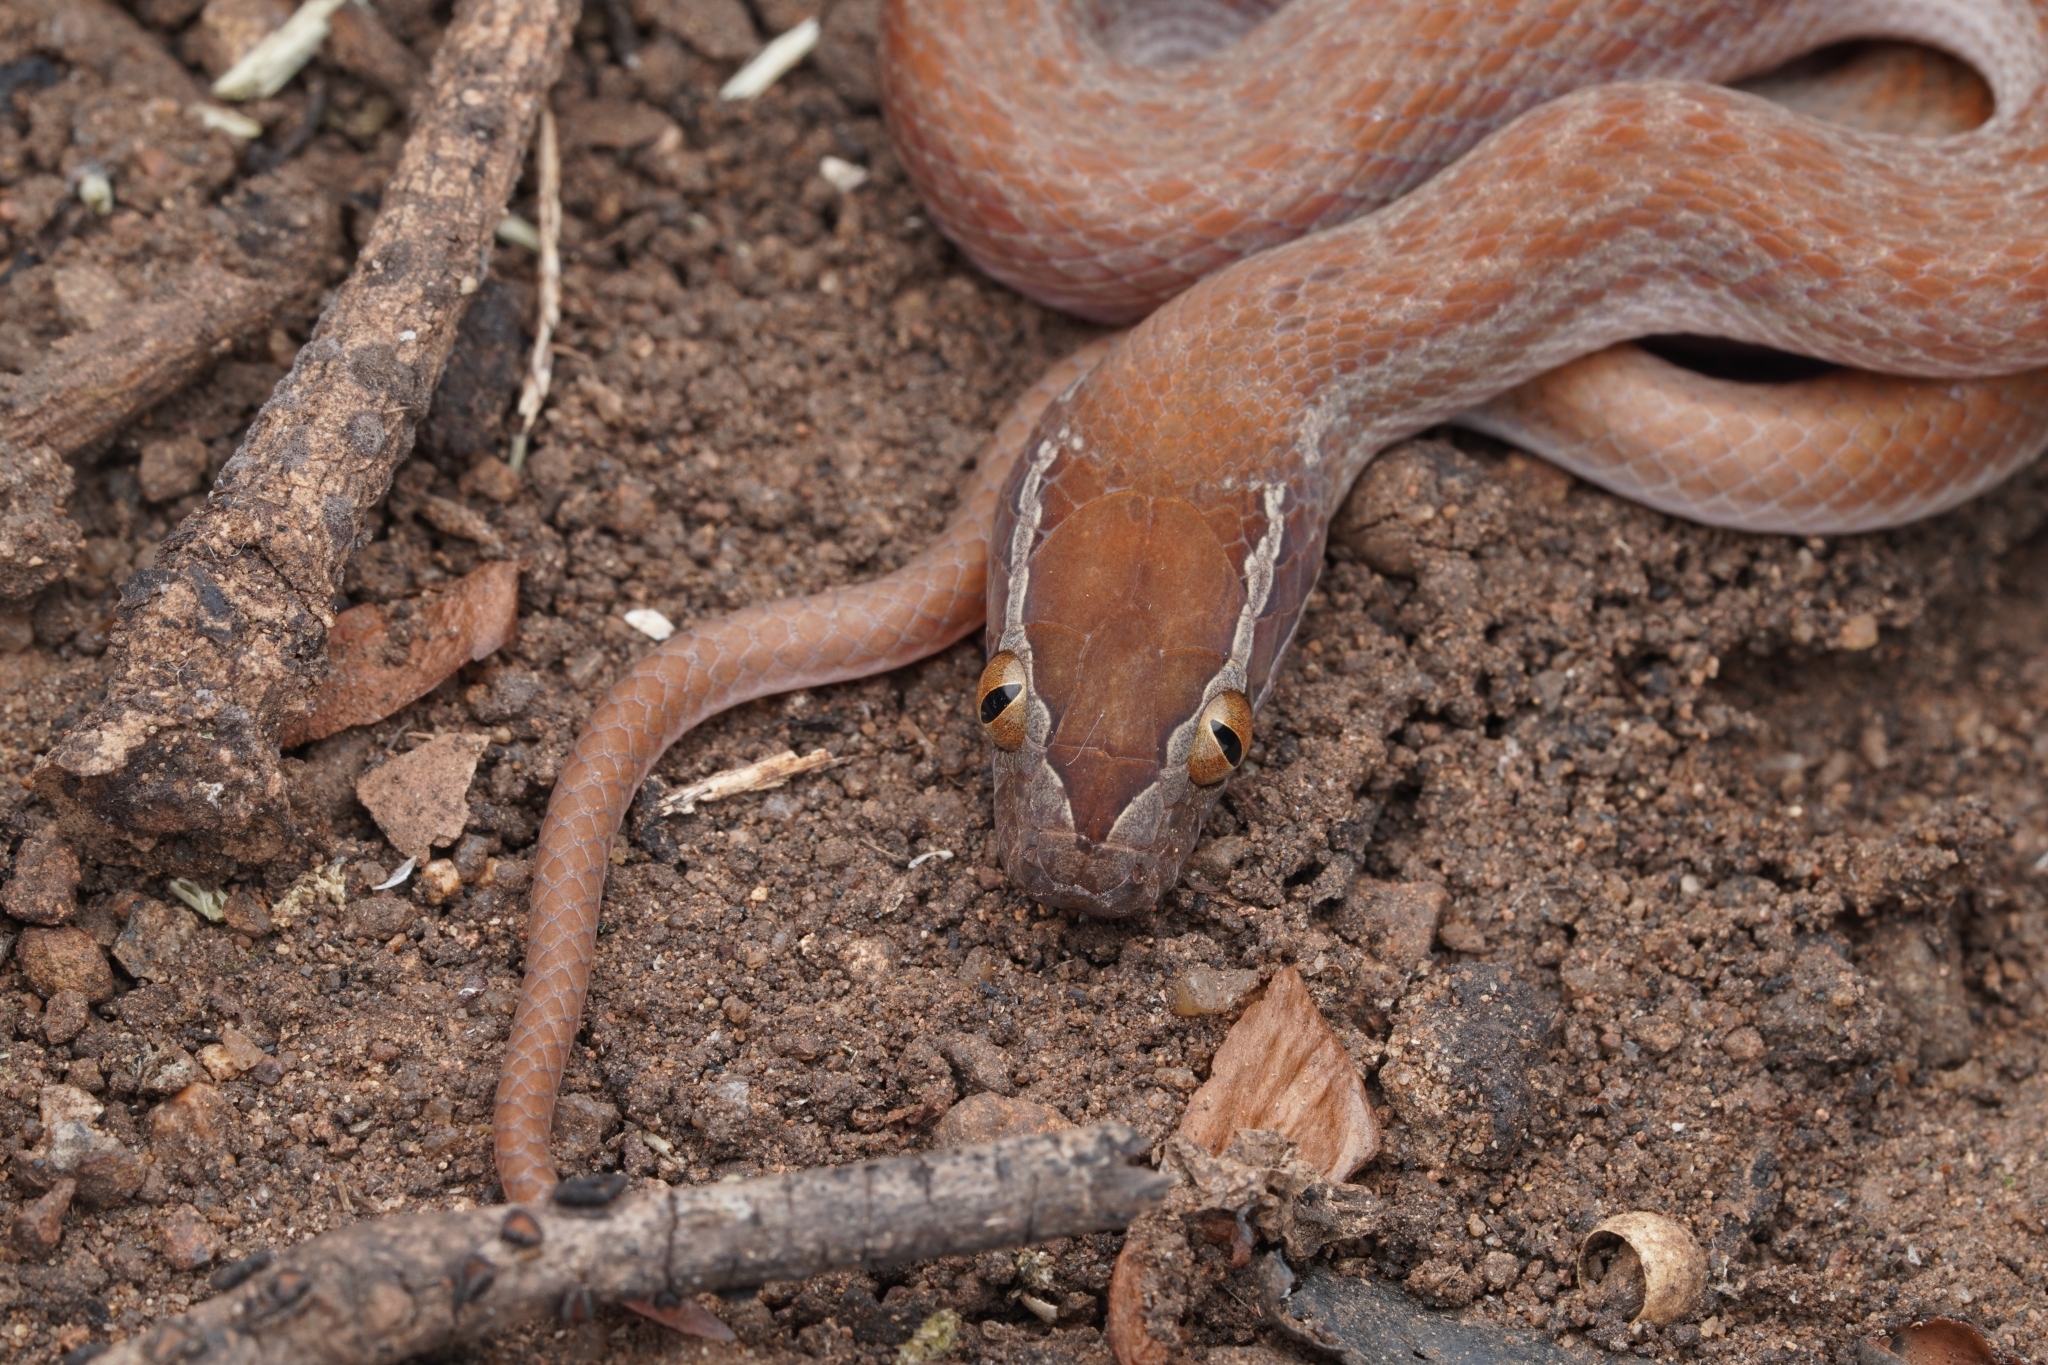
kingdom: Animalia
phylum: Chordata
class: Squamata
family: Lamprophiidae
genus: Boaedon
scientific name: Boaedon capensis
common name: Brown house snake
